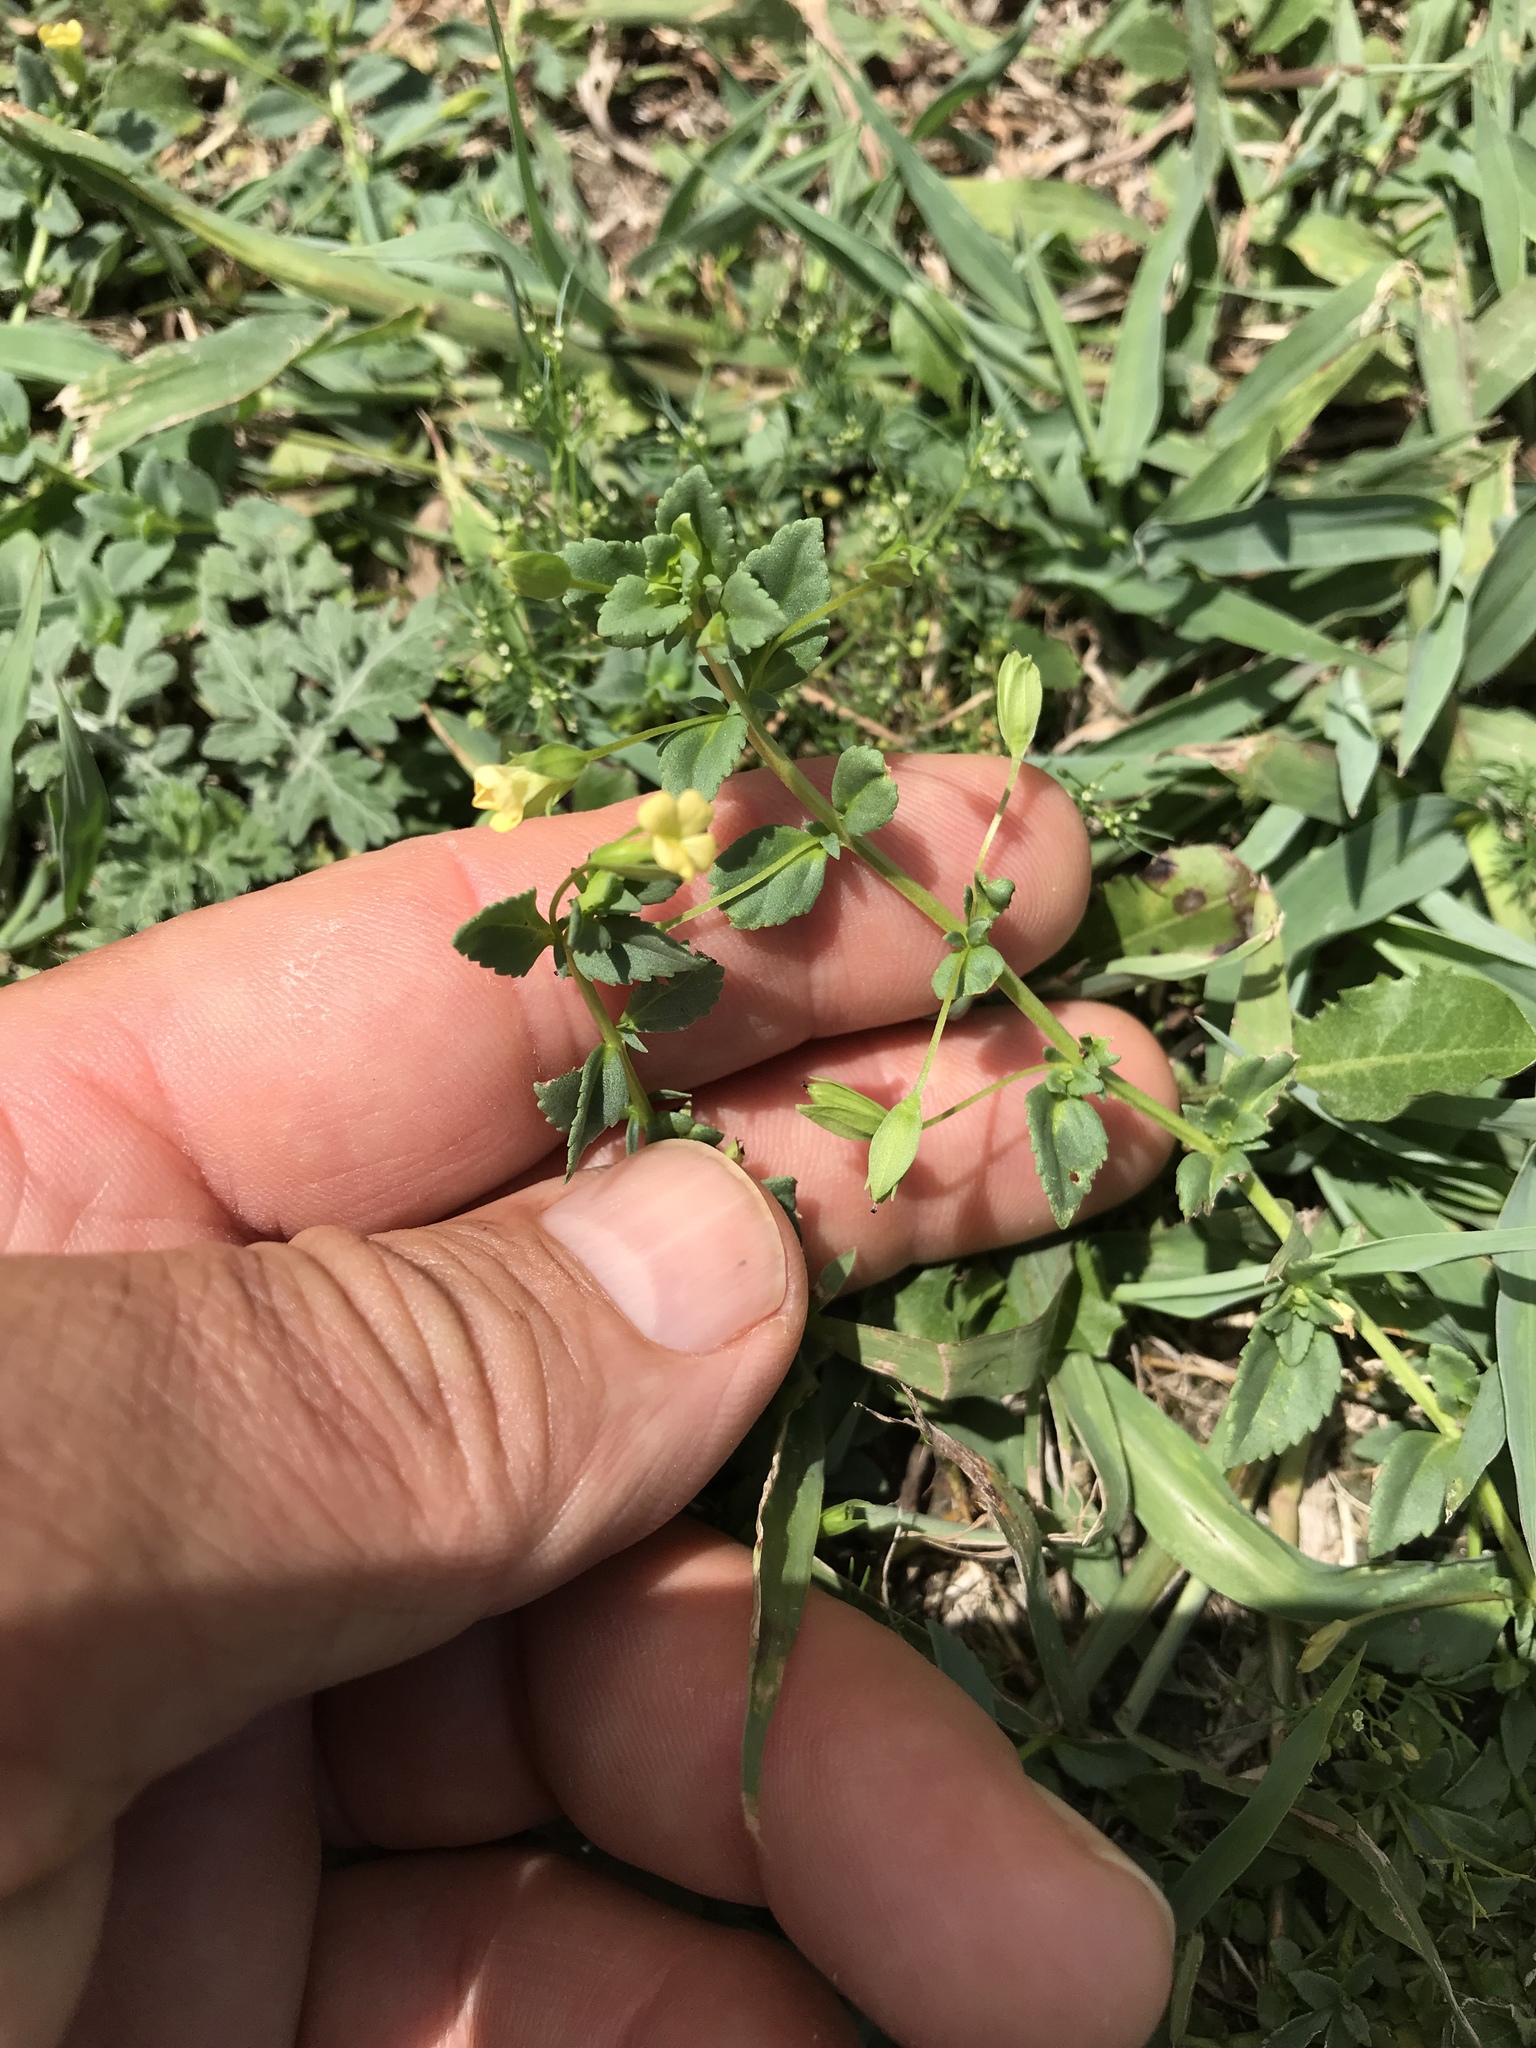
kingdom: Plantae
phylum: Tracheophyta
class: Magnoliopsida
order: Lamiales
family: Plantaginaceae
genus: Mecardonia
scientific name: Mecardonia procumbens
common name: Baby jump-up
